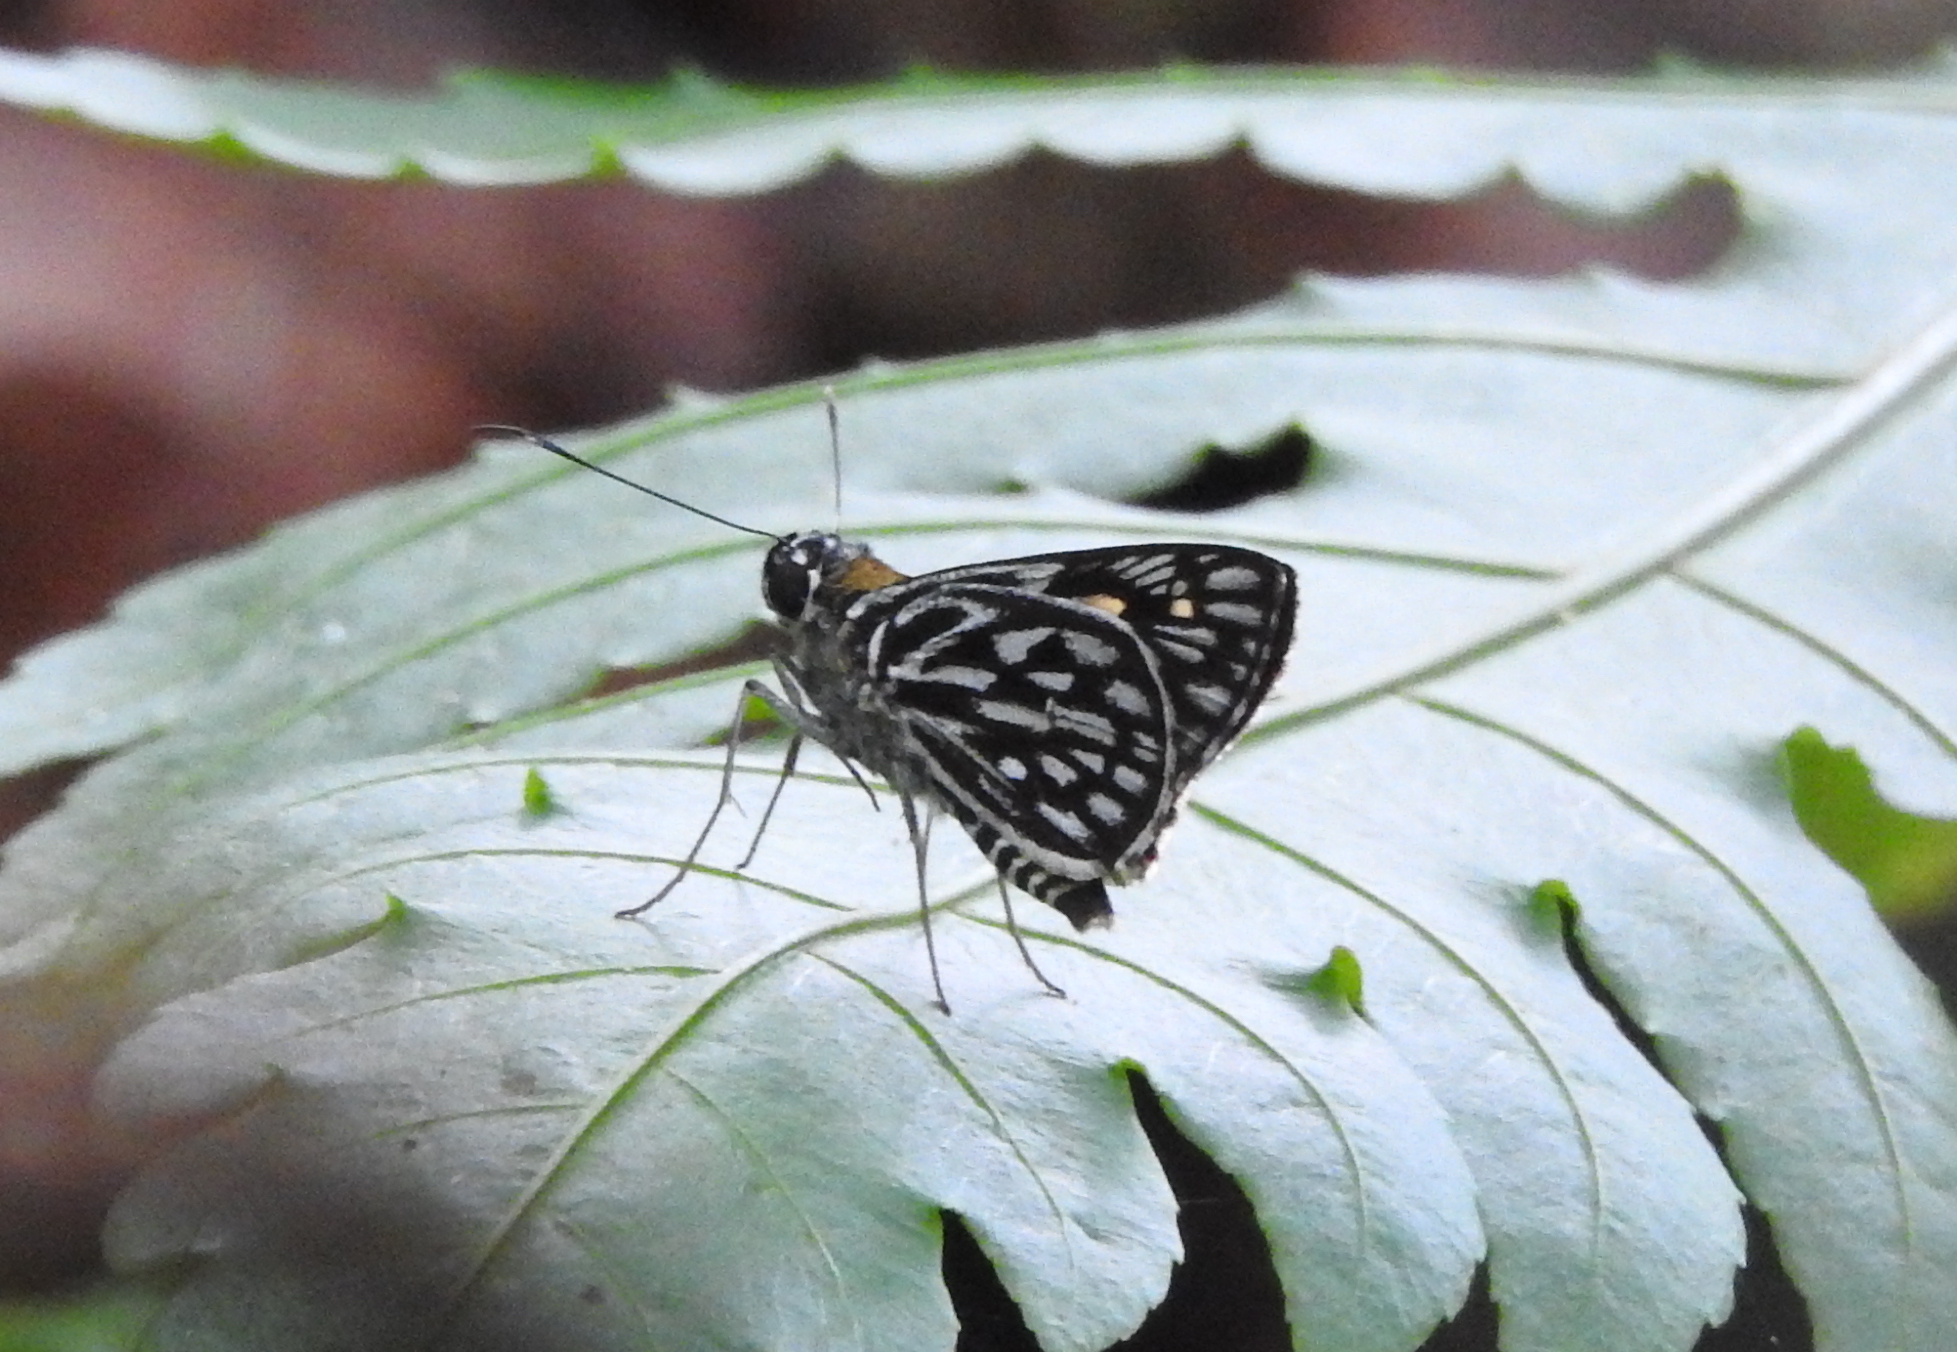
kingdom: Animalia
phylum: Arthropoda
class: Insecta
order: Lepidoptera
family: Hesperiidae
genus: Plastingia
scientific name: Plastingia naga
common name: Chequered lancer
